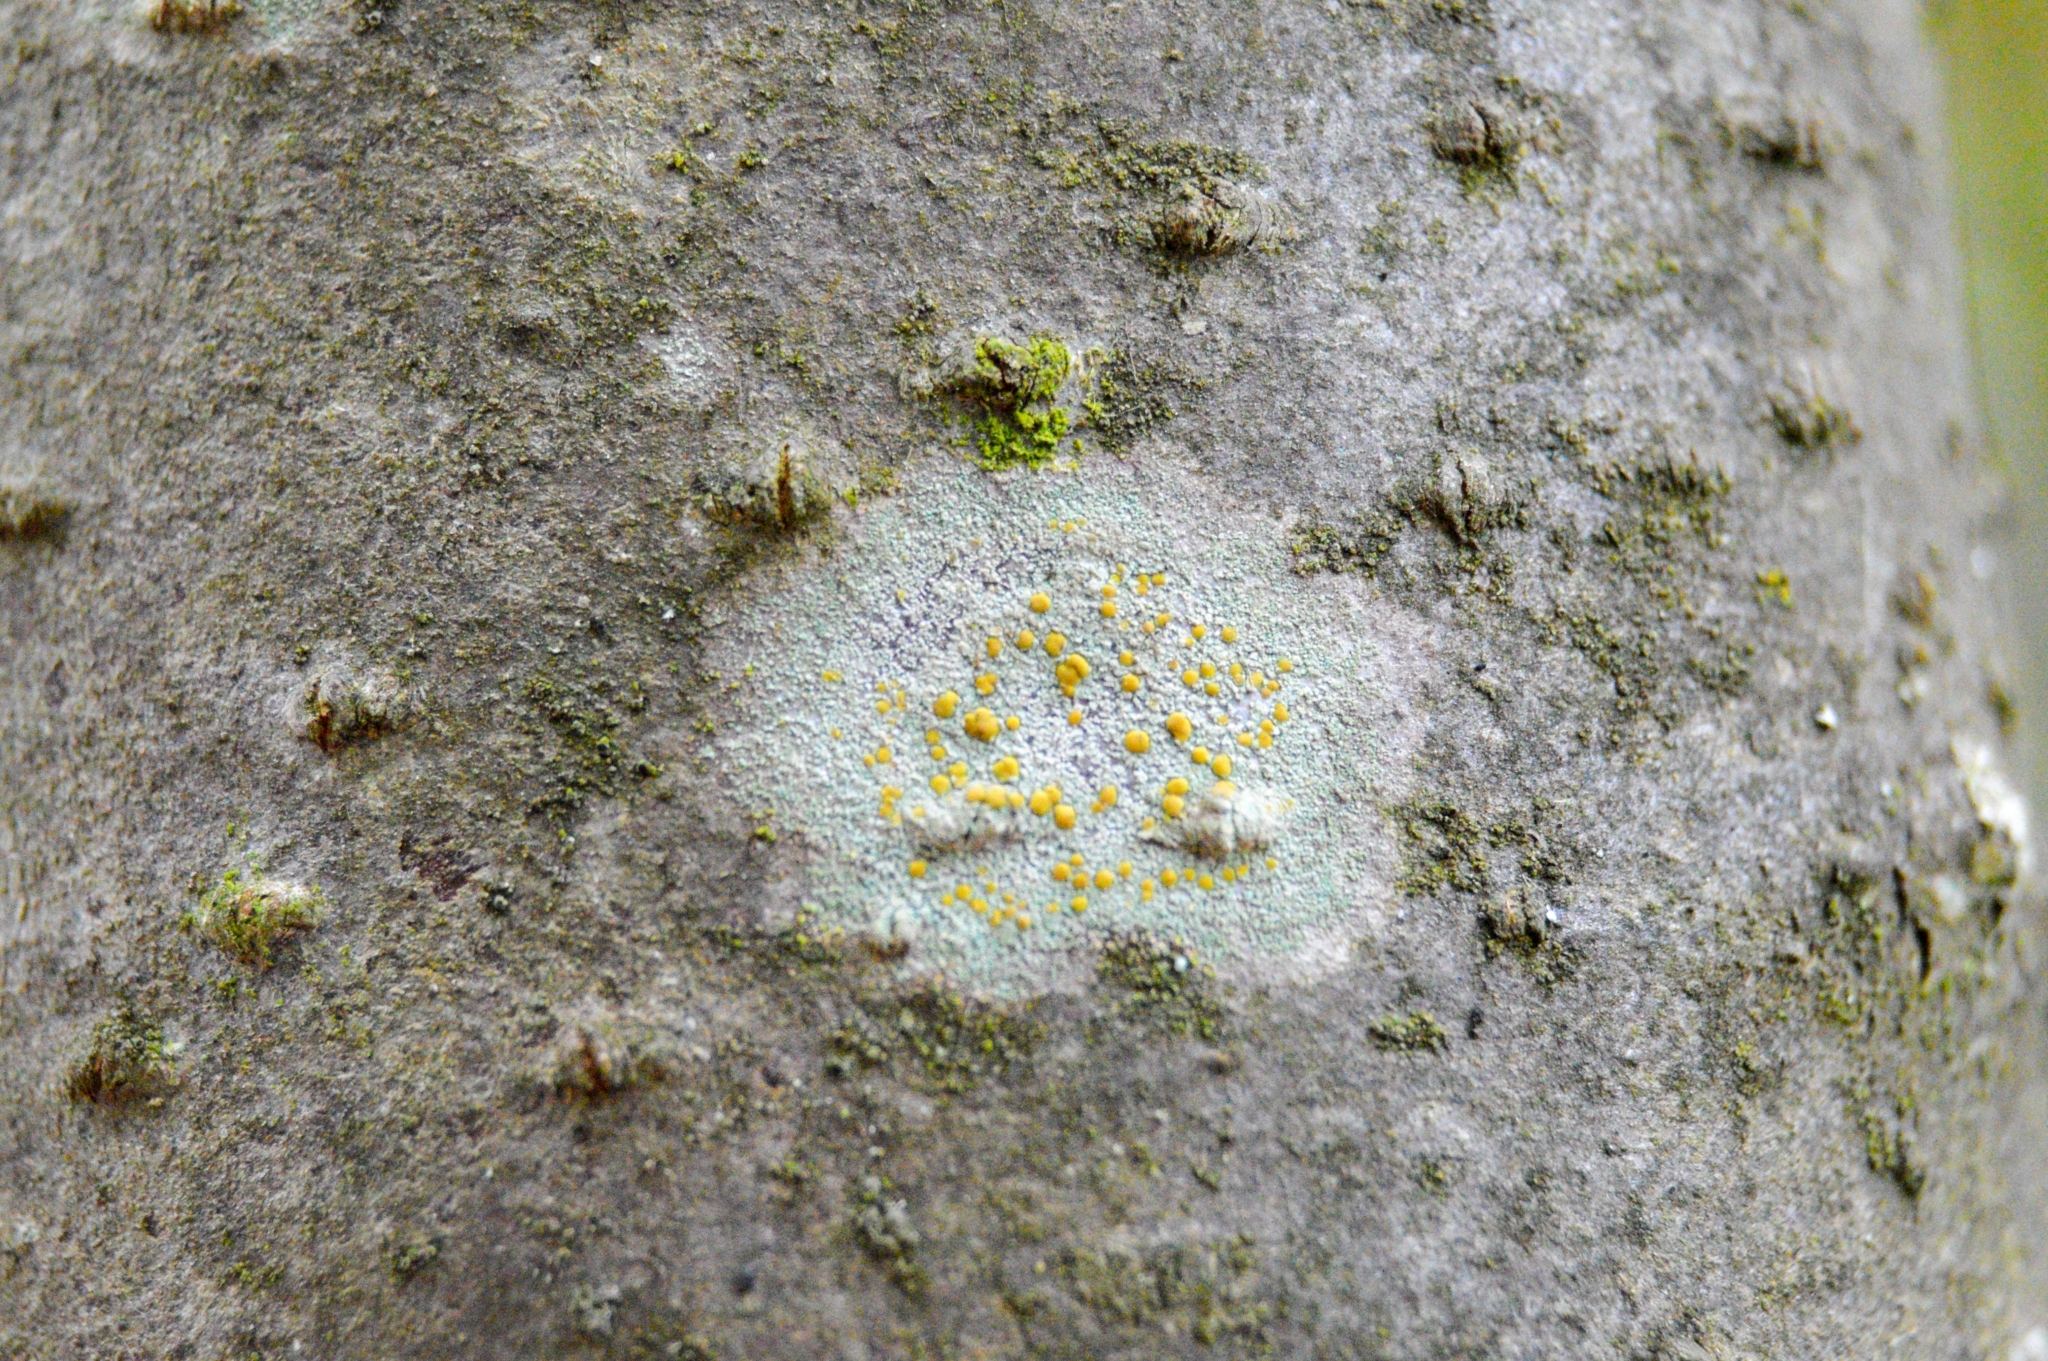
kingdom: Fungi
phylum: Ascomycota
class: Lecanoromycetes
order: Lecanorales
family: Lecanoraceae
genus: Lecanora
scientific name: Lecanora symmicta
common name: Fused rim lichen
